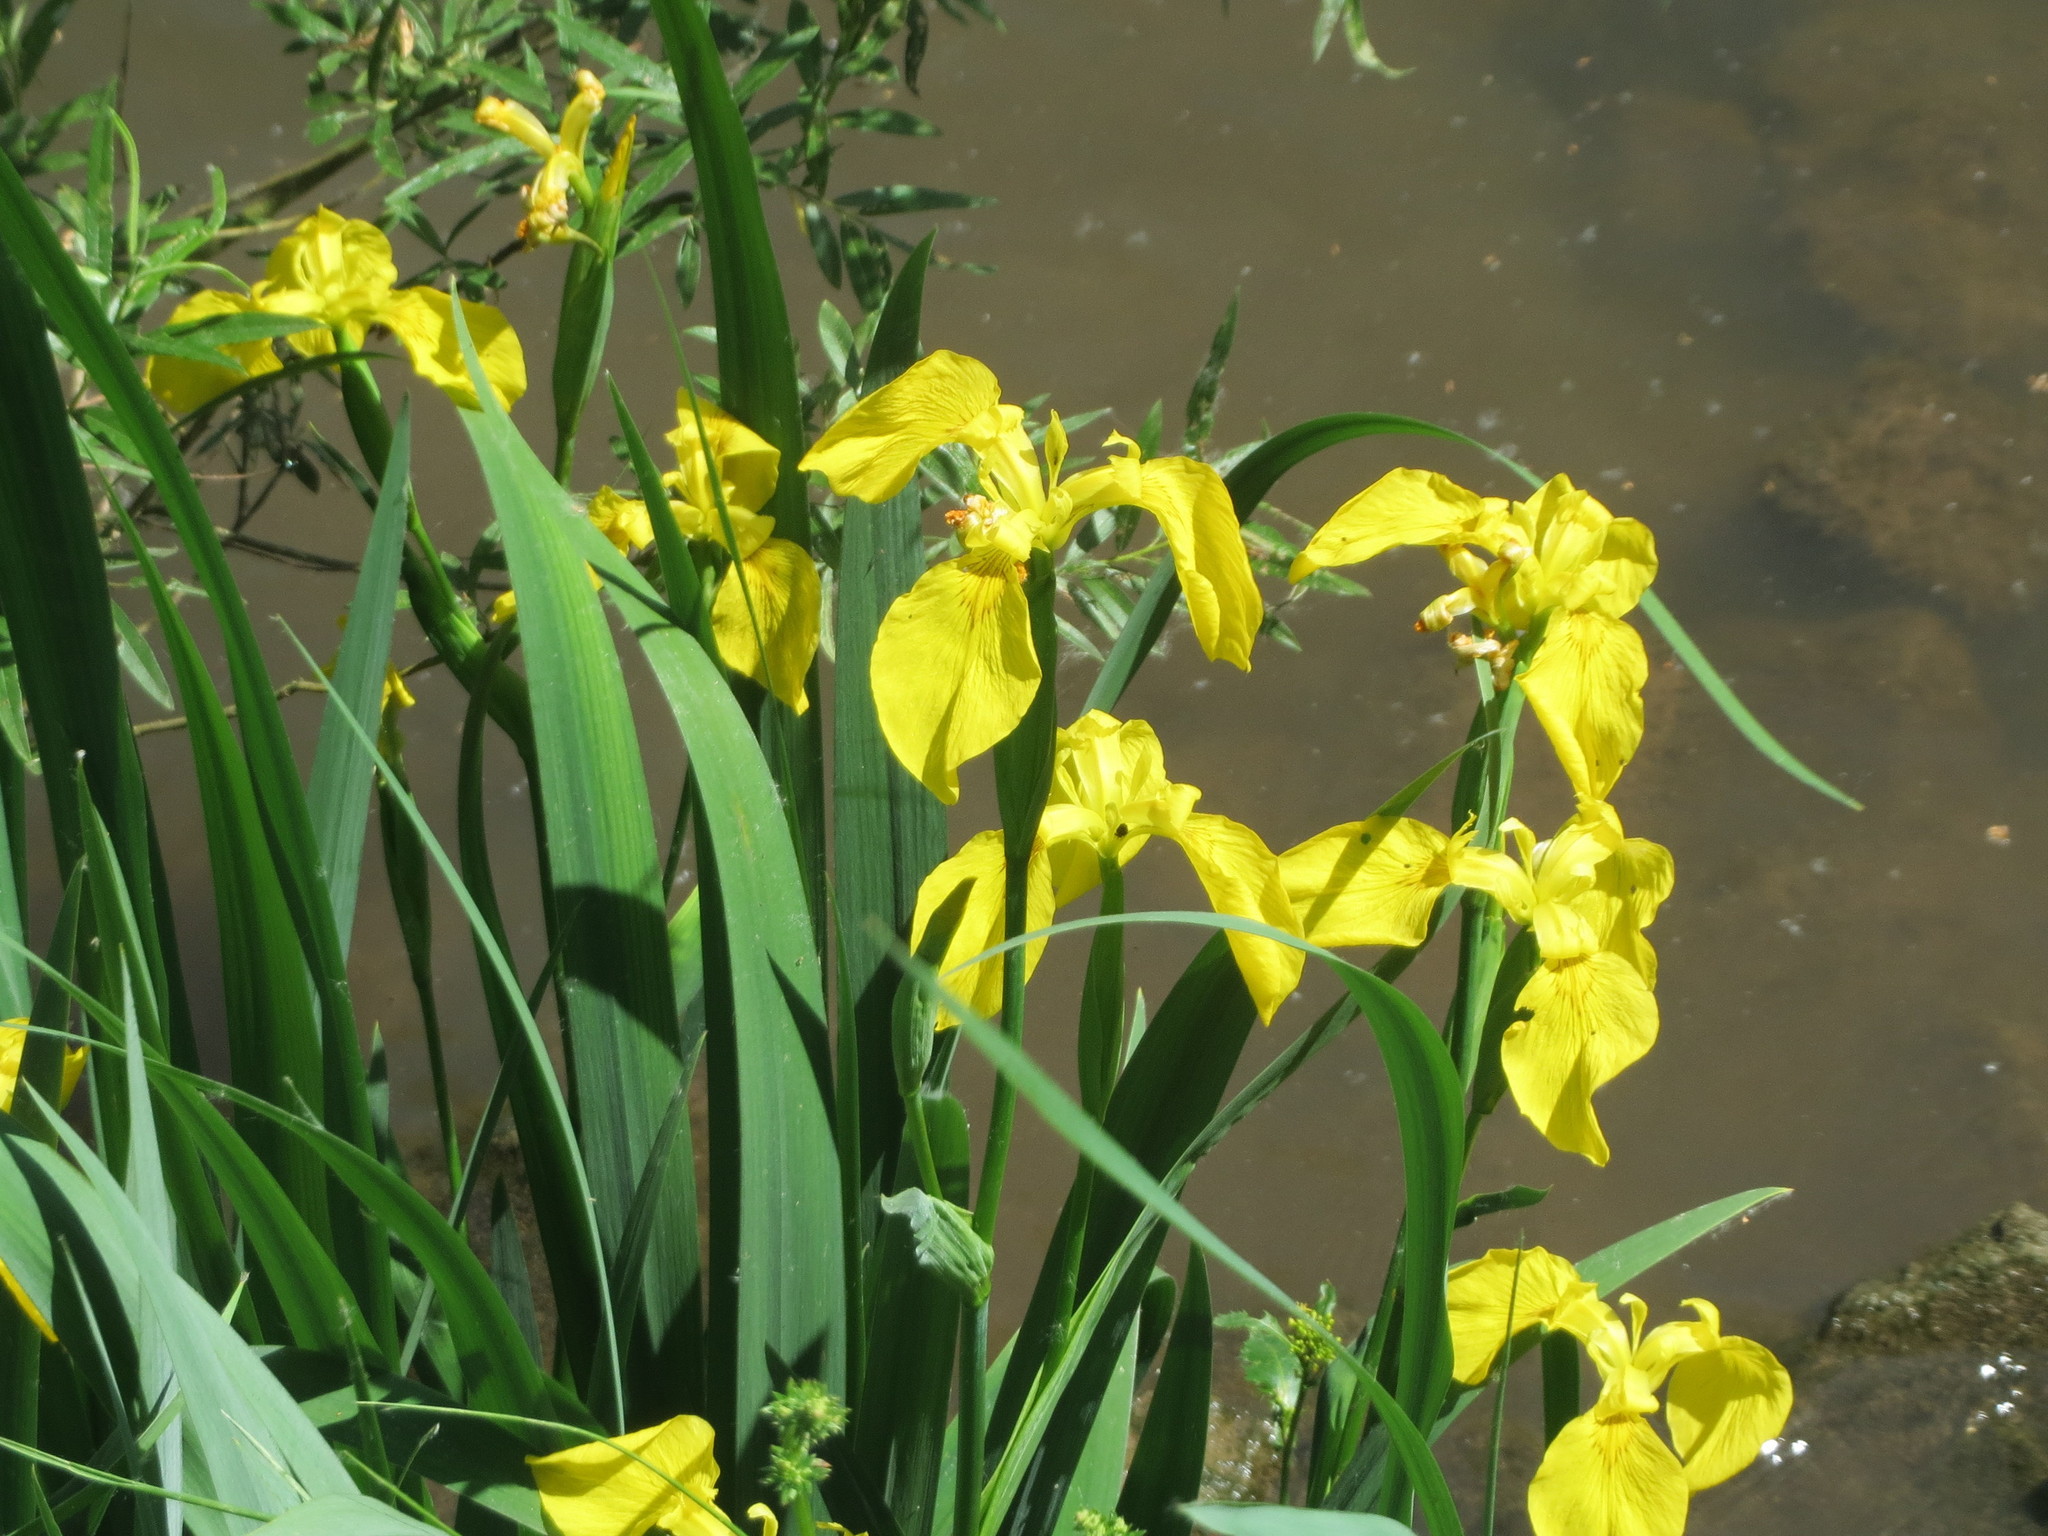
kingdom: Plantae
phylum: Tracheophyta
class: Liliopsida
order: Asparagales
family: Iridaceae
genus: Iris
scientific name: Iris pseudacorus
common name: Yellow flag
